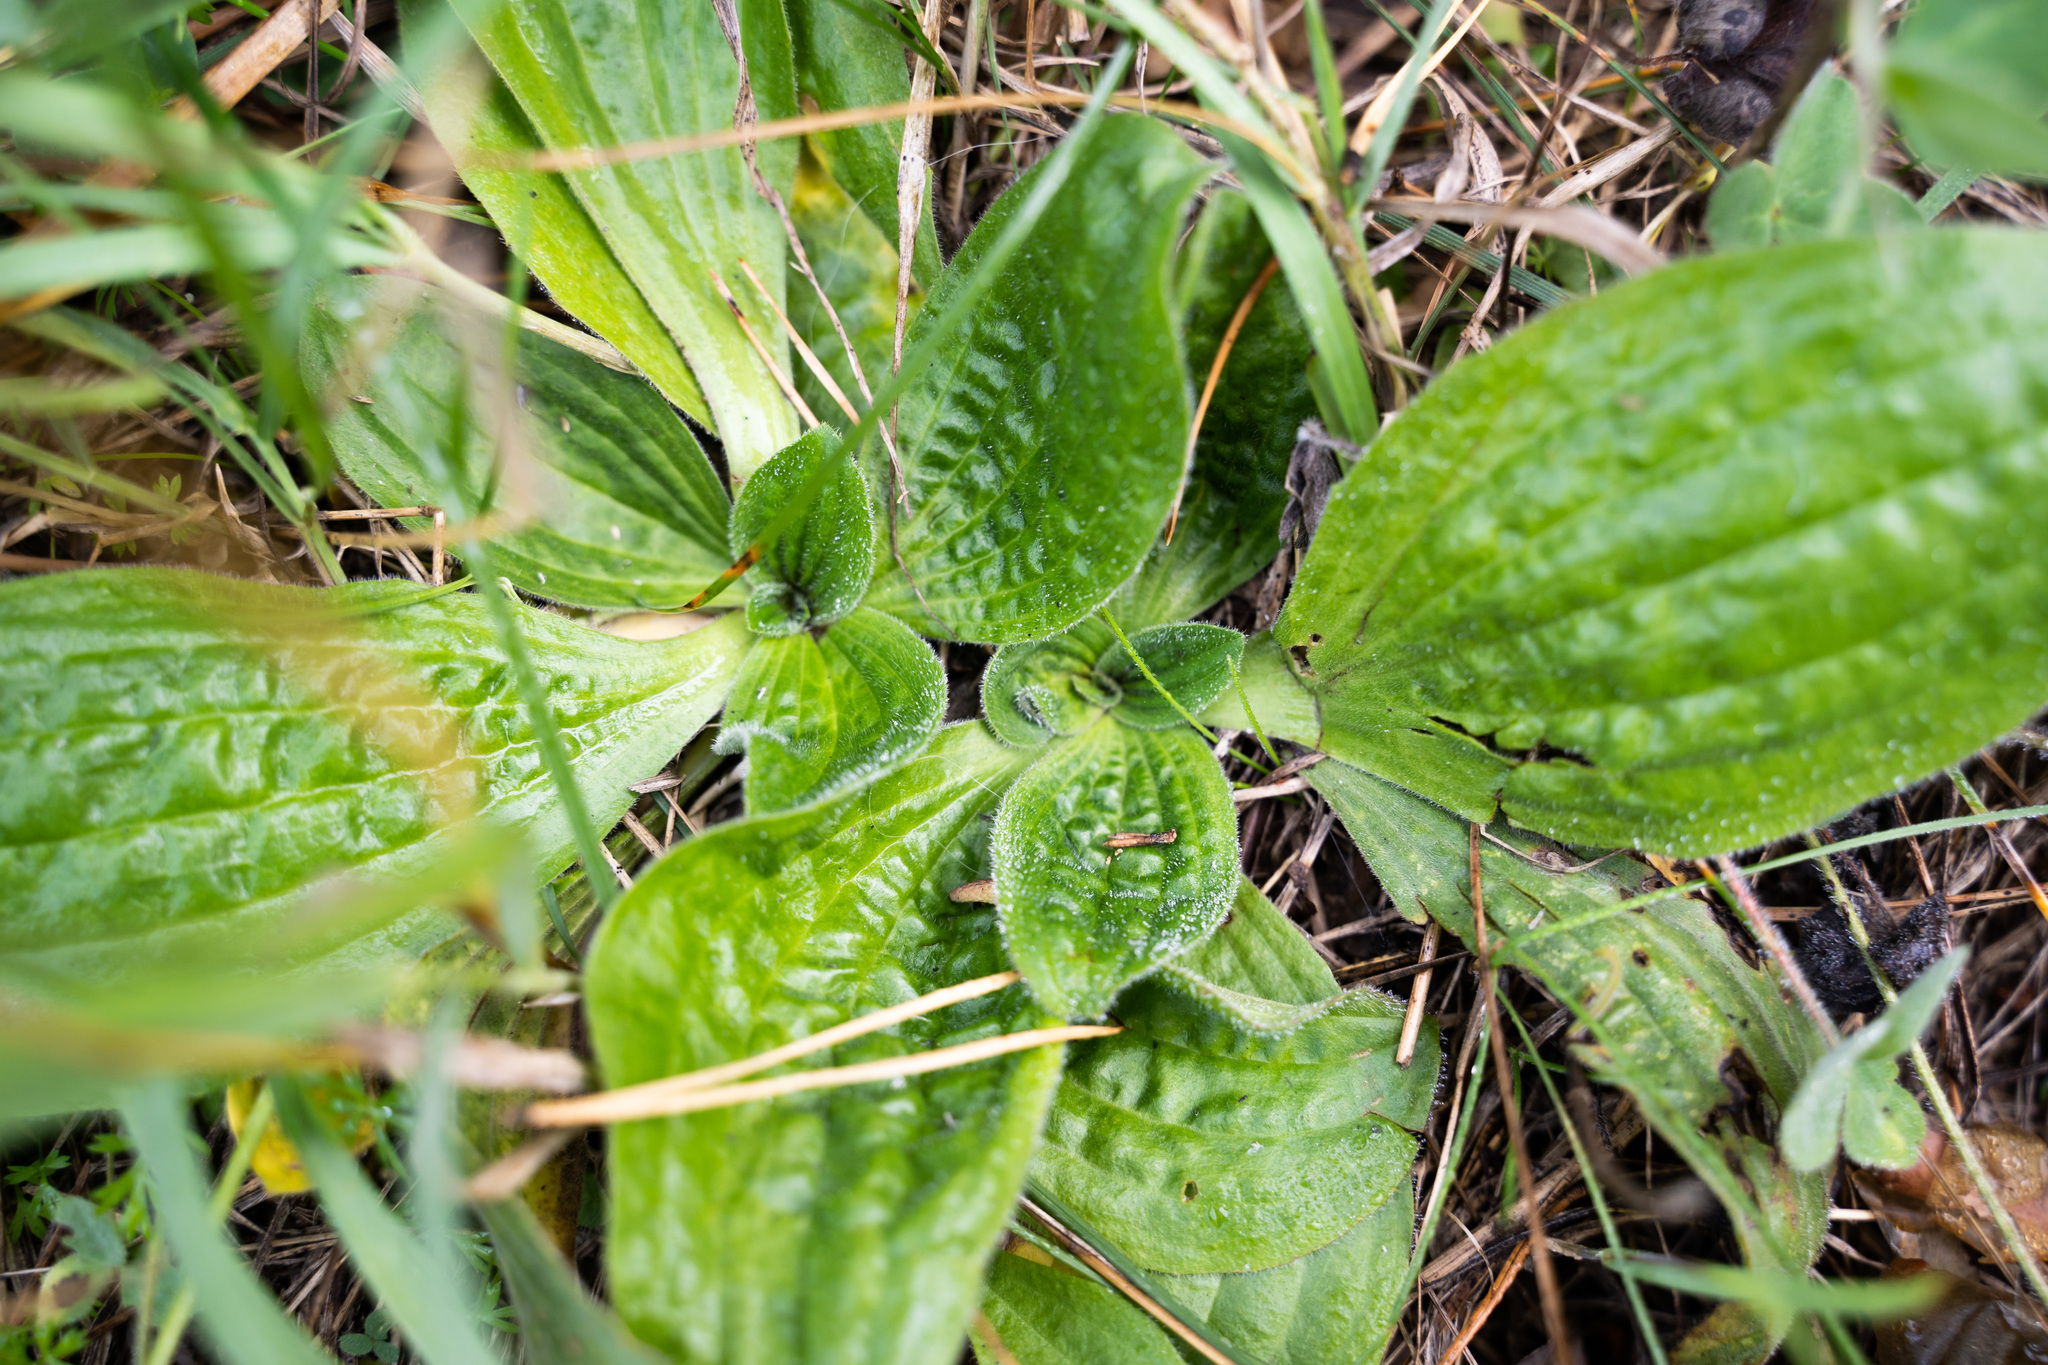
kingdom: Plantae
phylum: Tracheophyta
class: Magnoliopsida
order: Lamiales
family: Plantaginaceae
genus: Plantago
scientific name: Plantago media
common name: Hoary plantain
